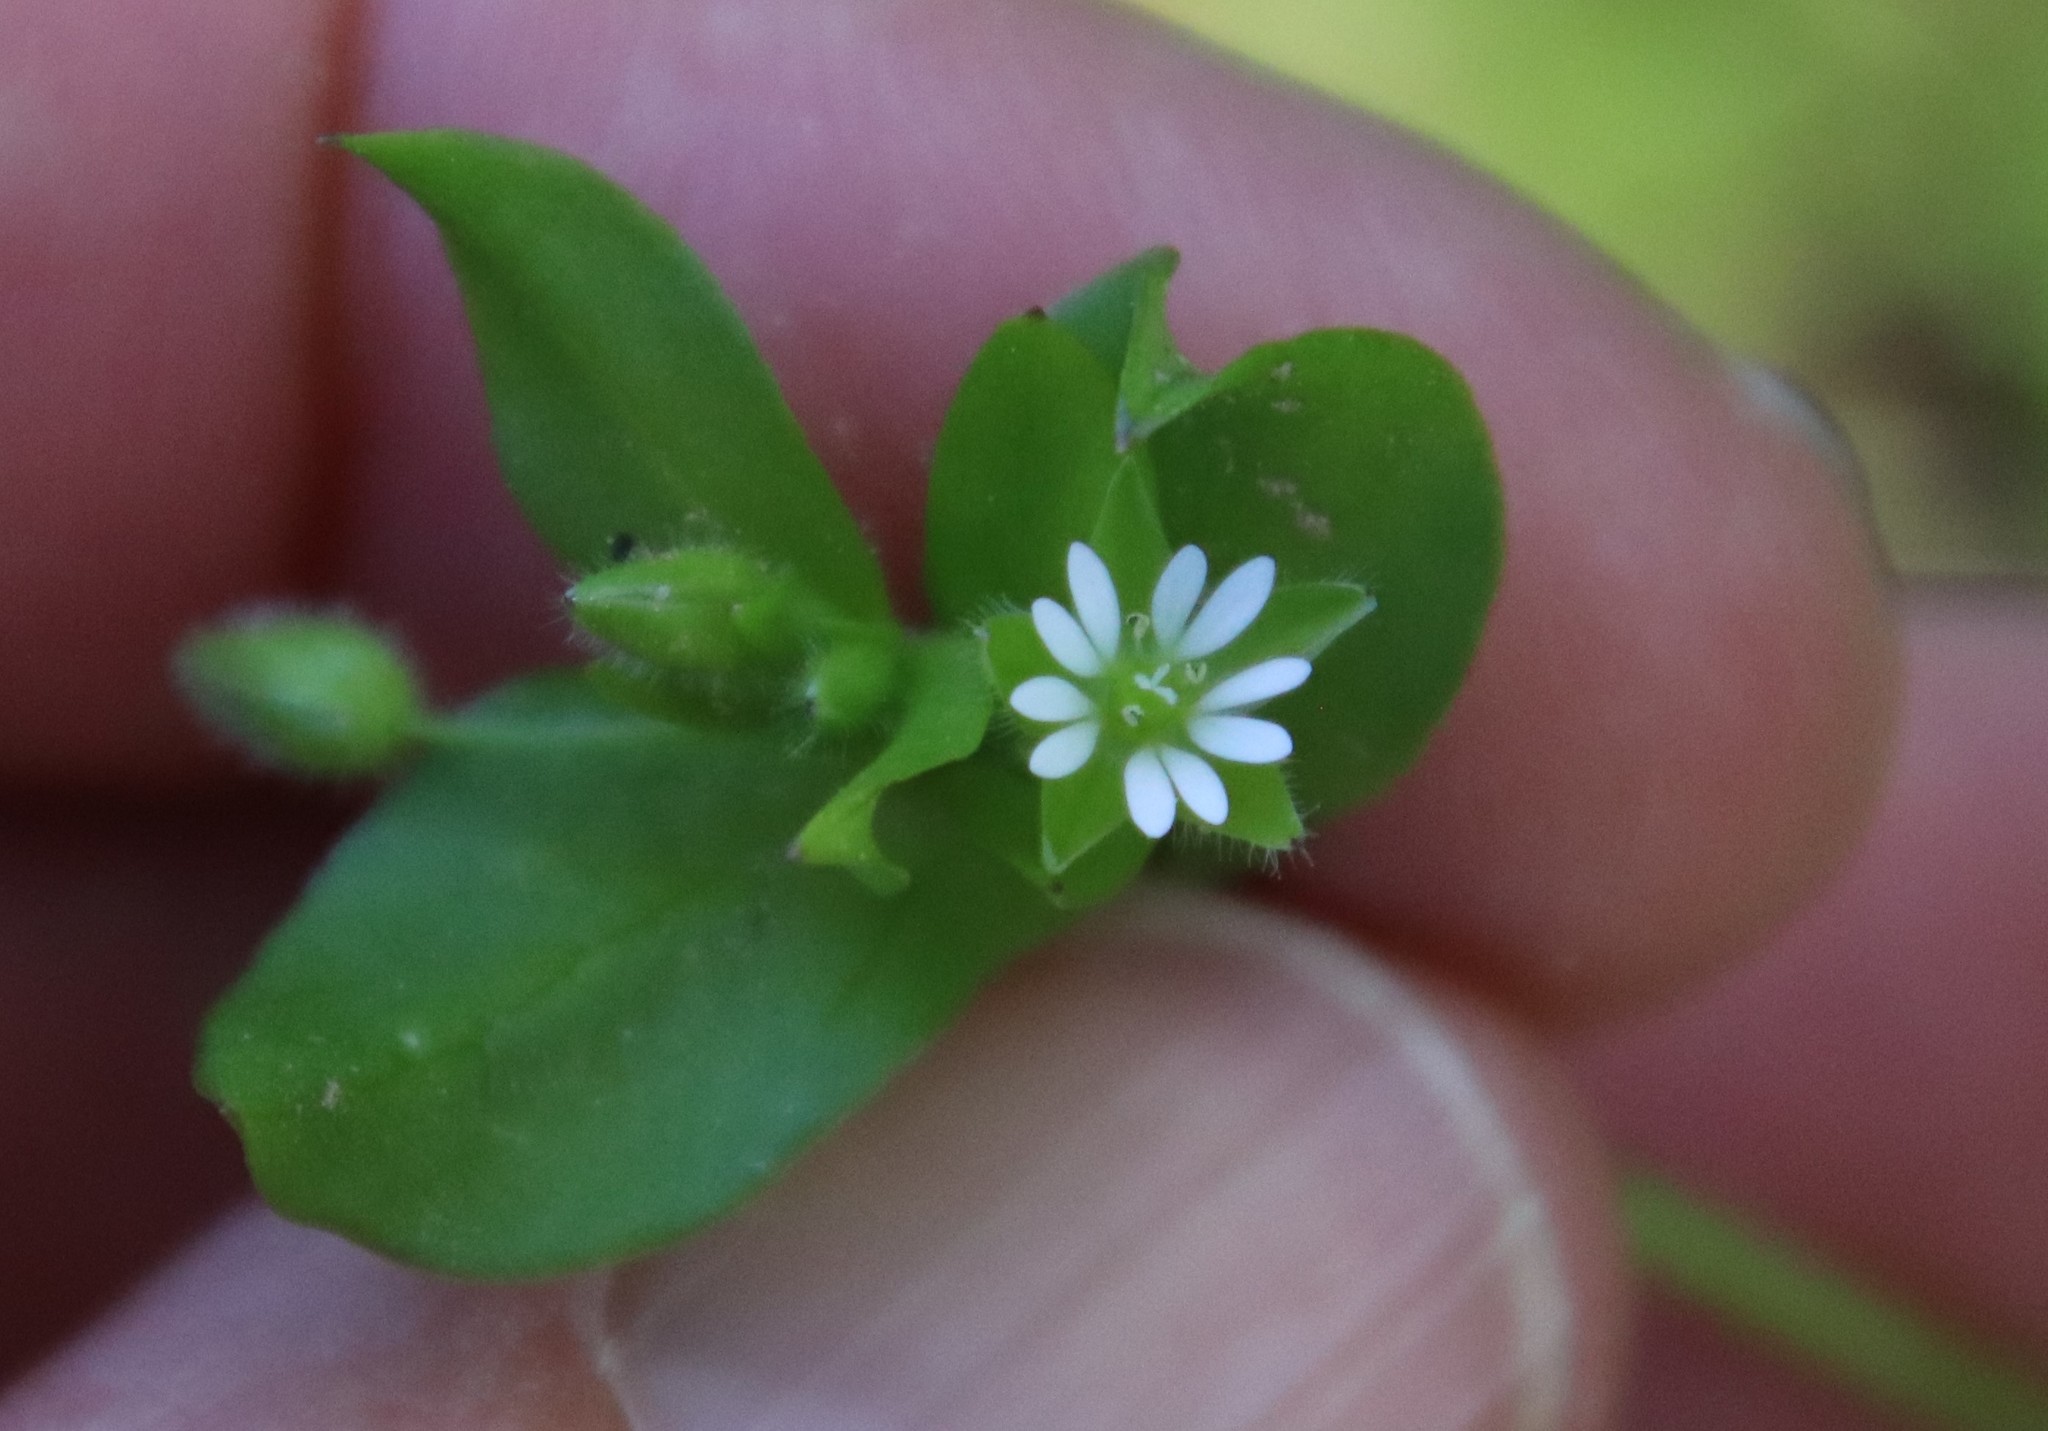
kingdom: Plantae
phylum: Tracheophyta
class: Magnoliopsida
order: Caryophyllales
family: Caryophyllaceae
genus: Stellaria
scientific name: Stellaria media
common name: Common chickweed
